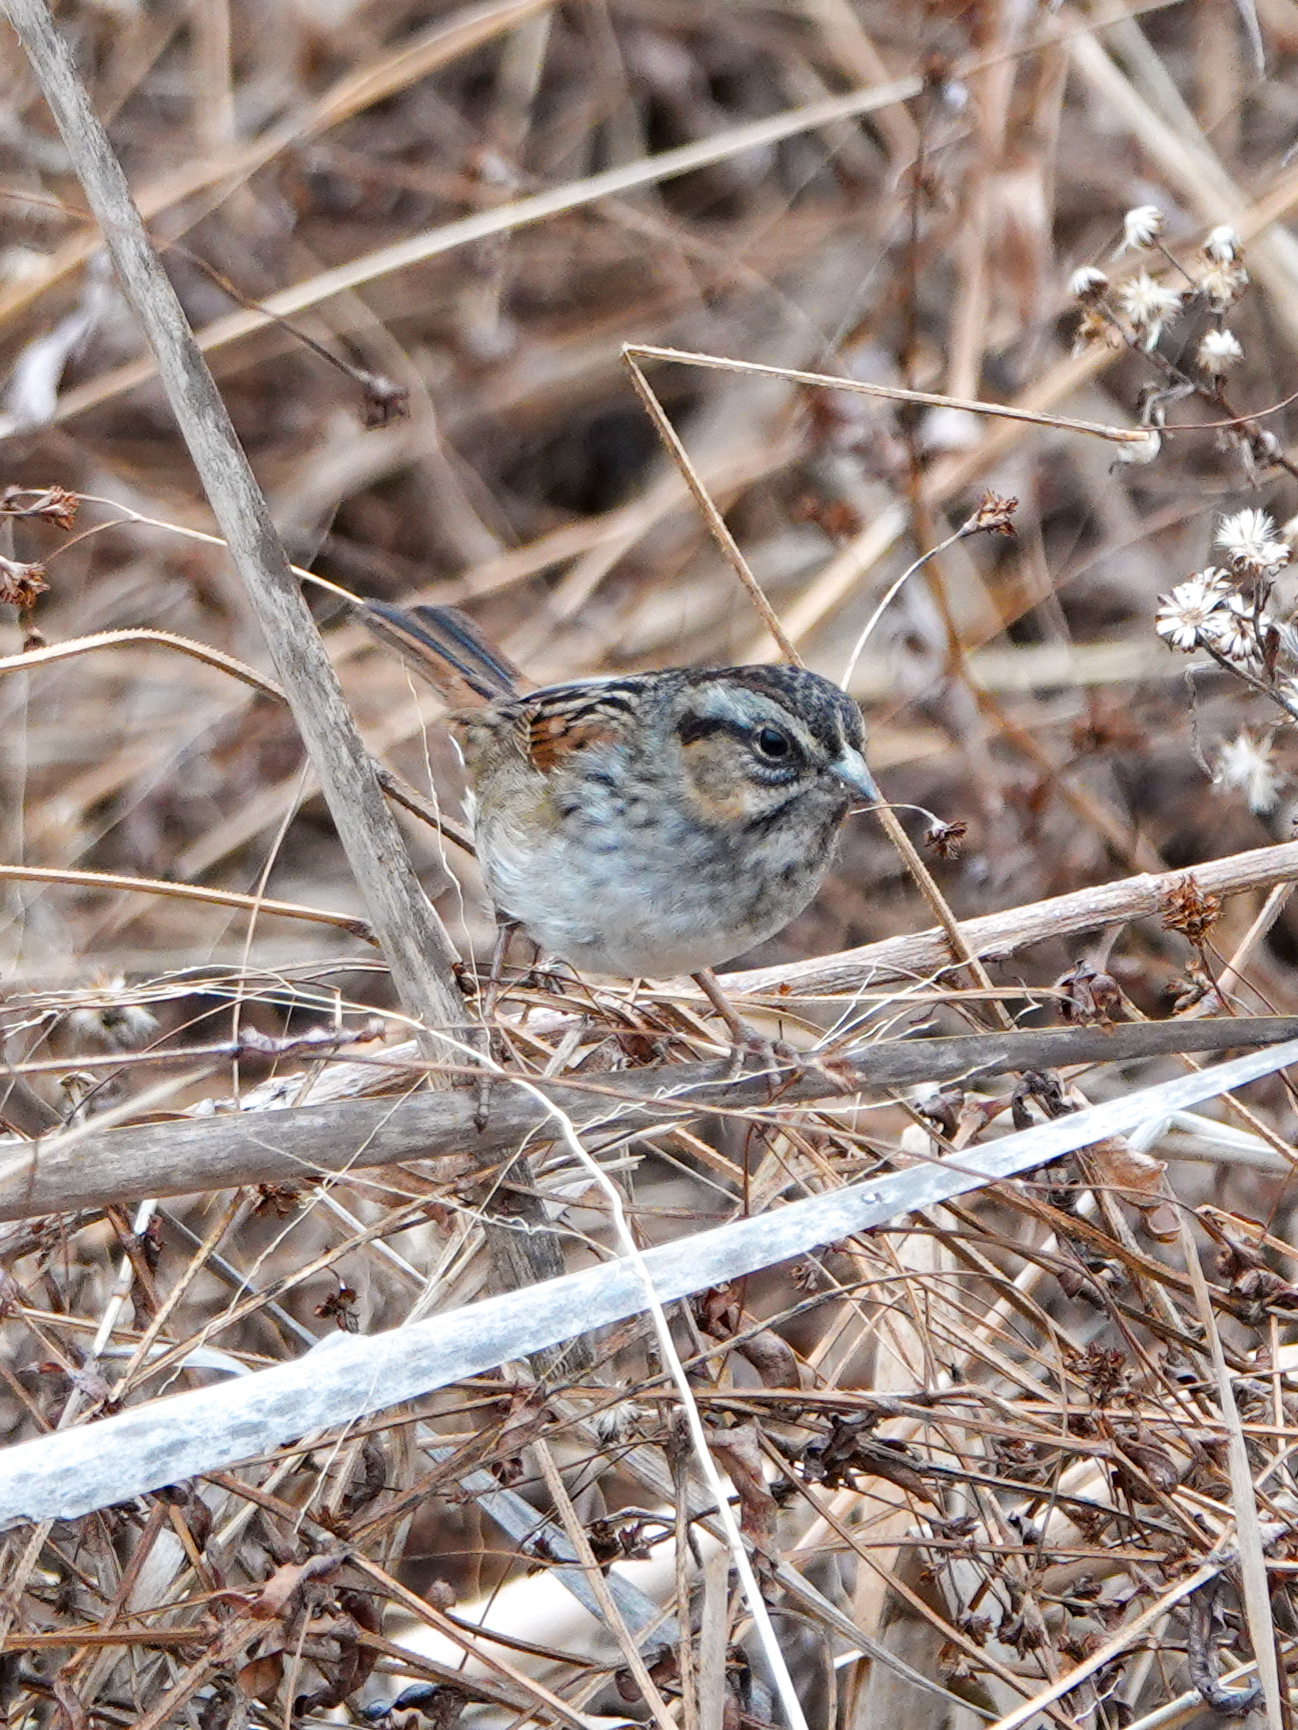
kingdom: Animalia
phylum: Chordata
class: Aves
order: Passeriformes
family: Passerellidae
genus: Melospiza
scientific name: Melospiza georgiana
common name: Swamp sparrow
